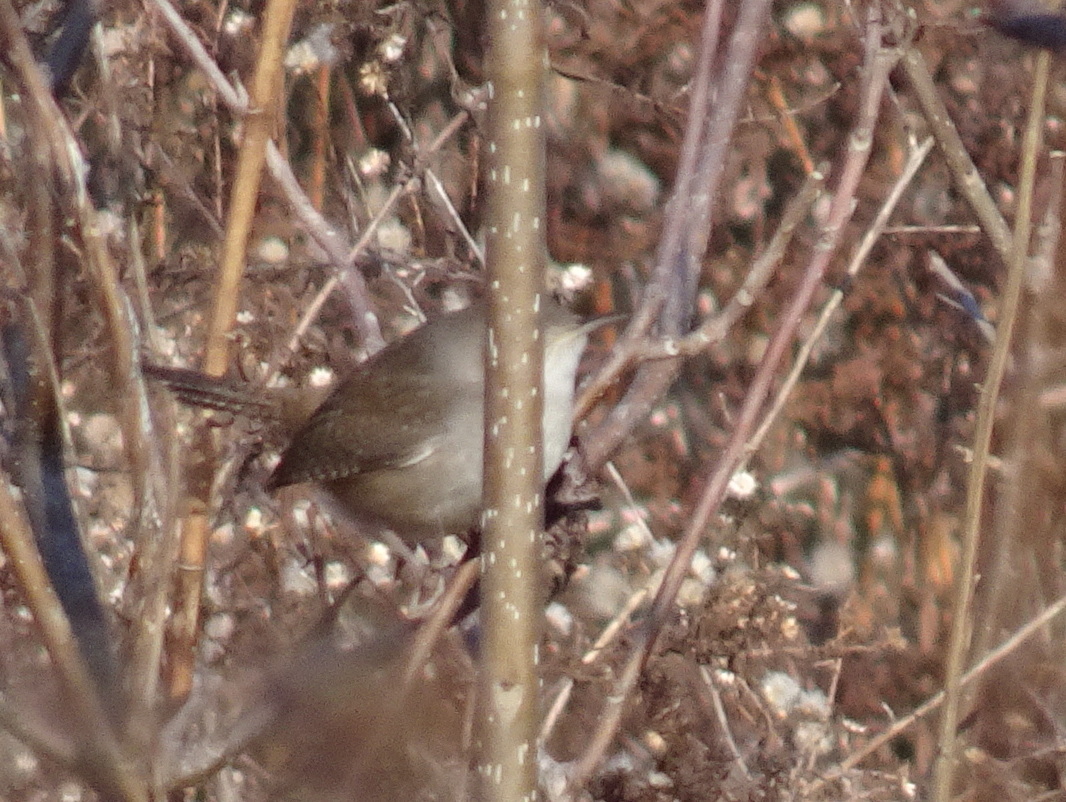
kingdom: Animalia
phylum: Chordata
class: Aves
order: Passeriformes
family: Troglodytidae
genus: Troglodytes
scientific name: Troglodytes aedon
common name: House wren
